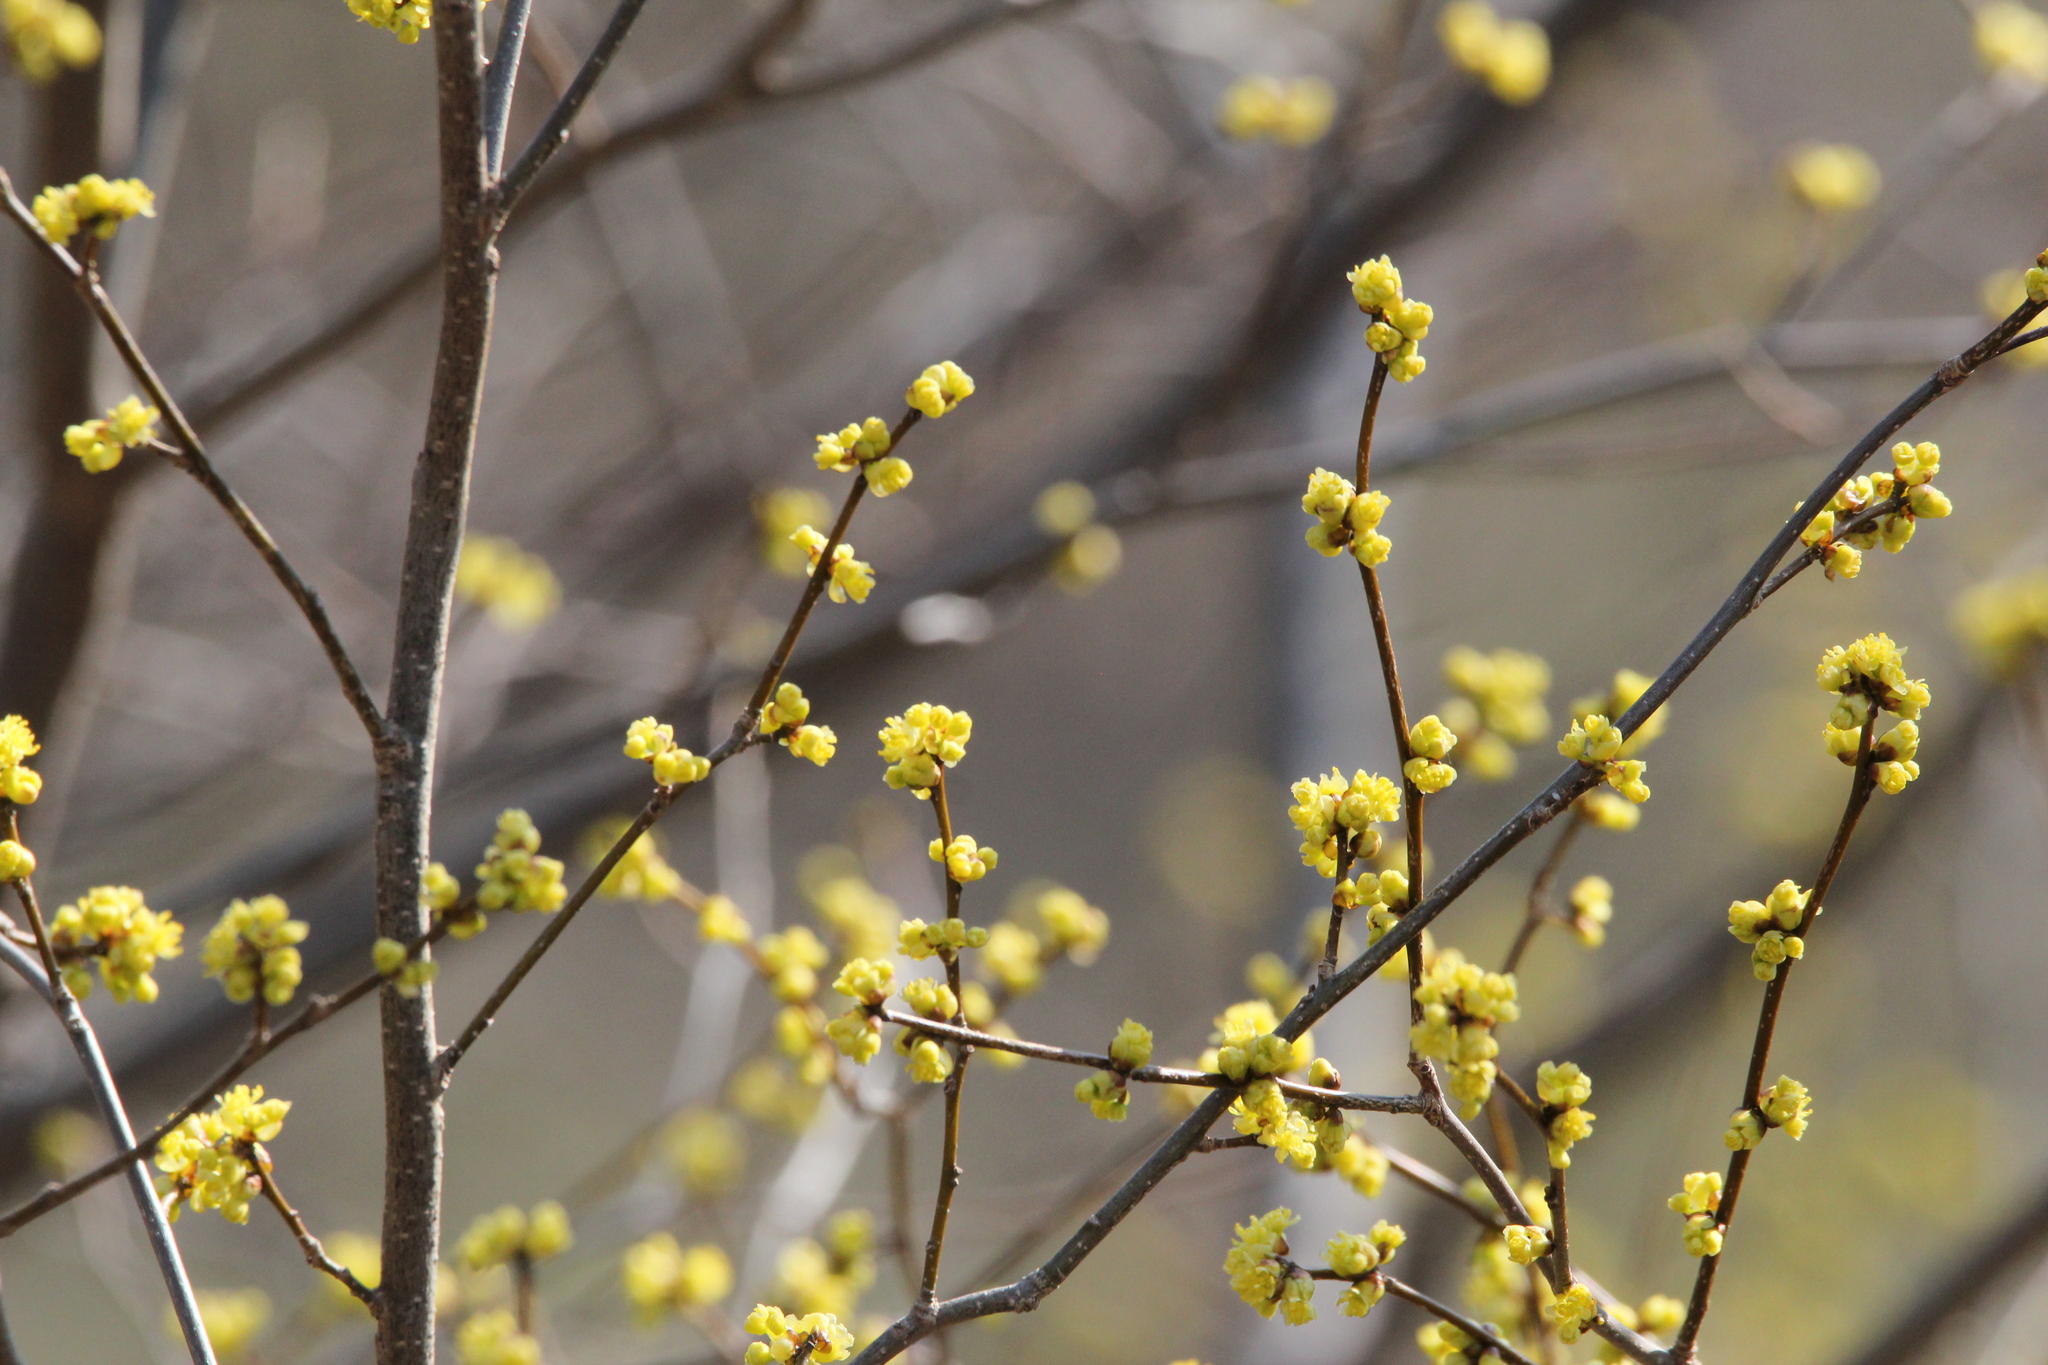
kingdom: Plantae
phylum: Tracheophyta
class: Magnoliopsida
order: Laurales
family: Lauraceae
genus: Lindera
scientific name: Lindera benzoin
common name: Spicebush
